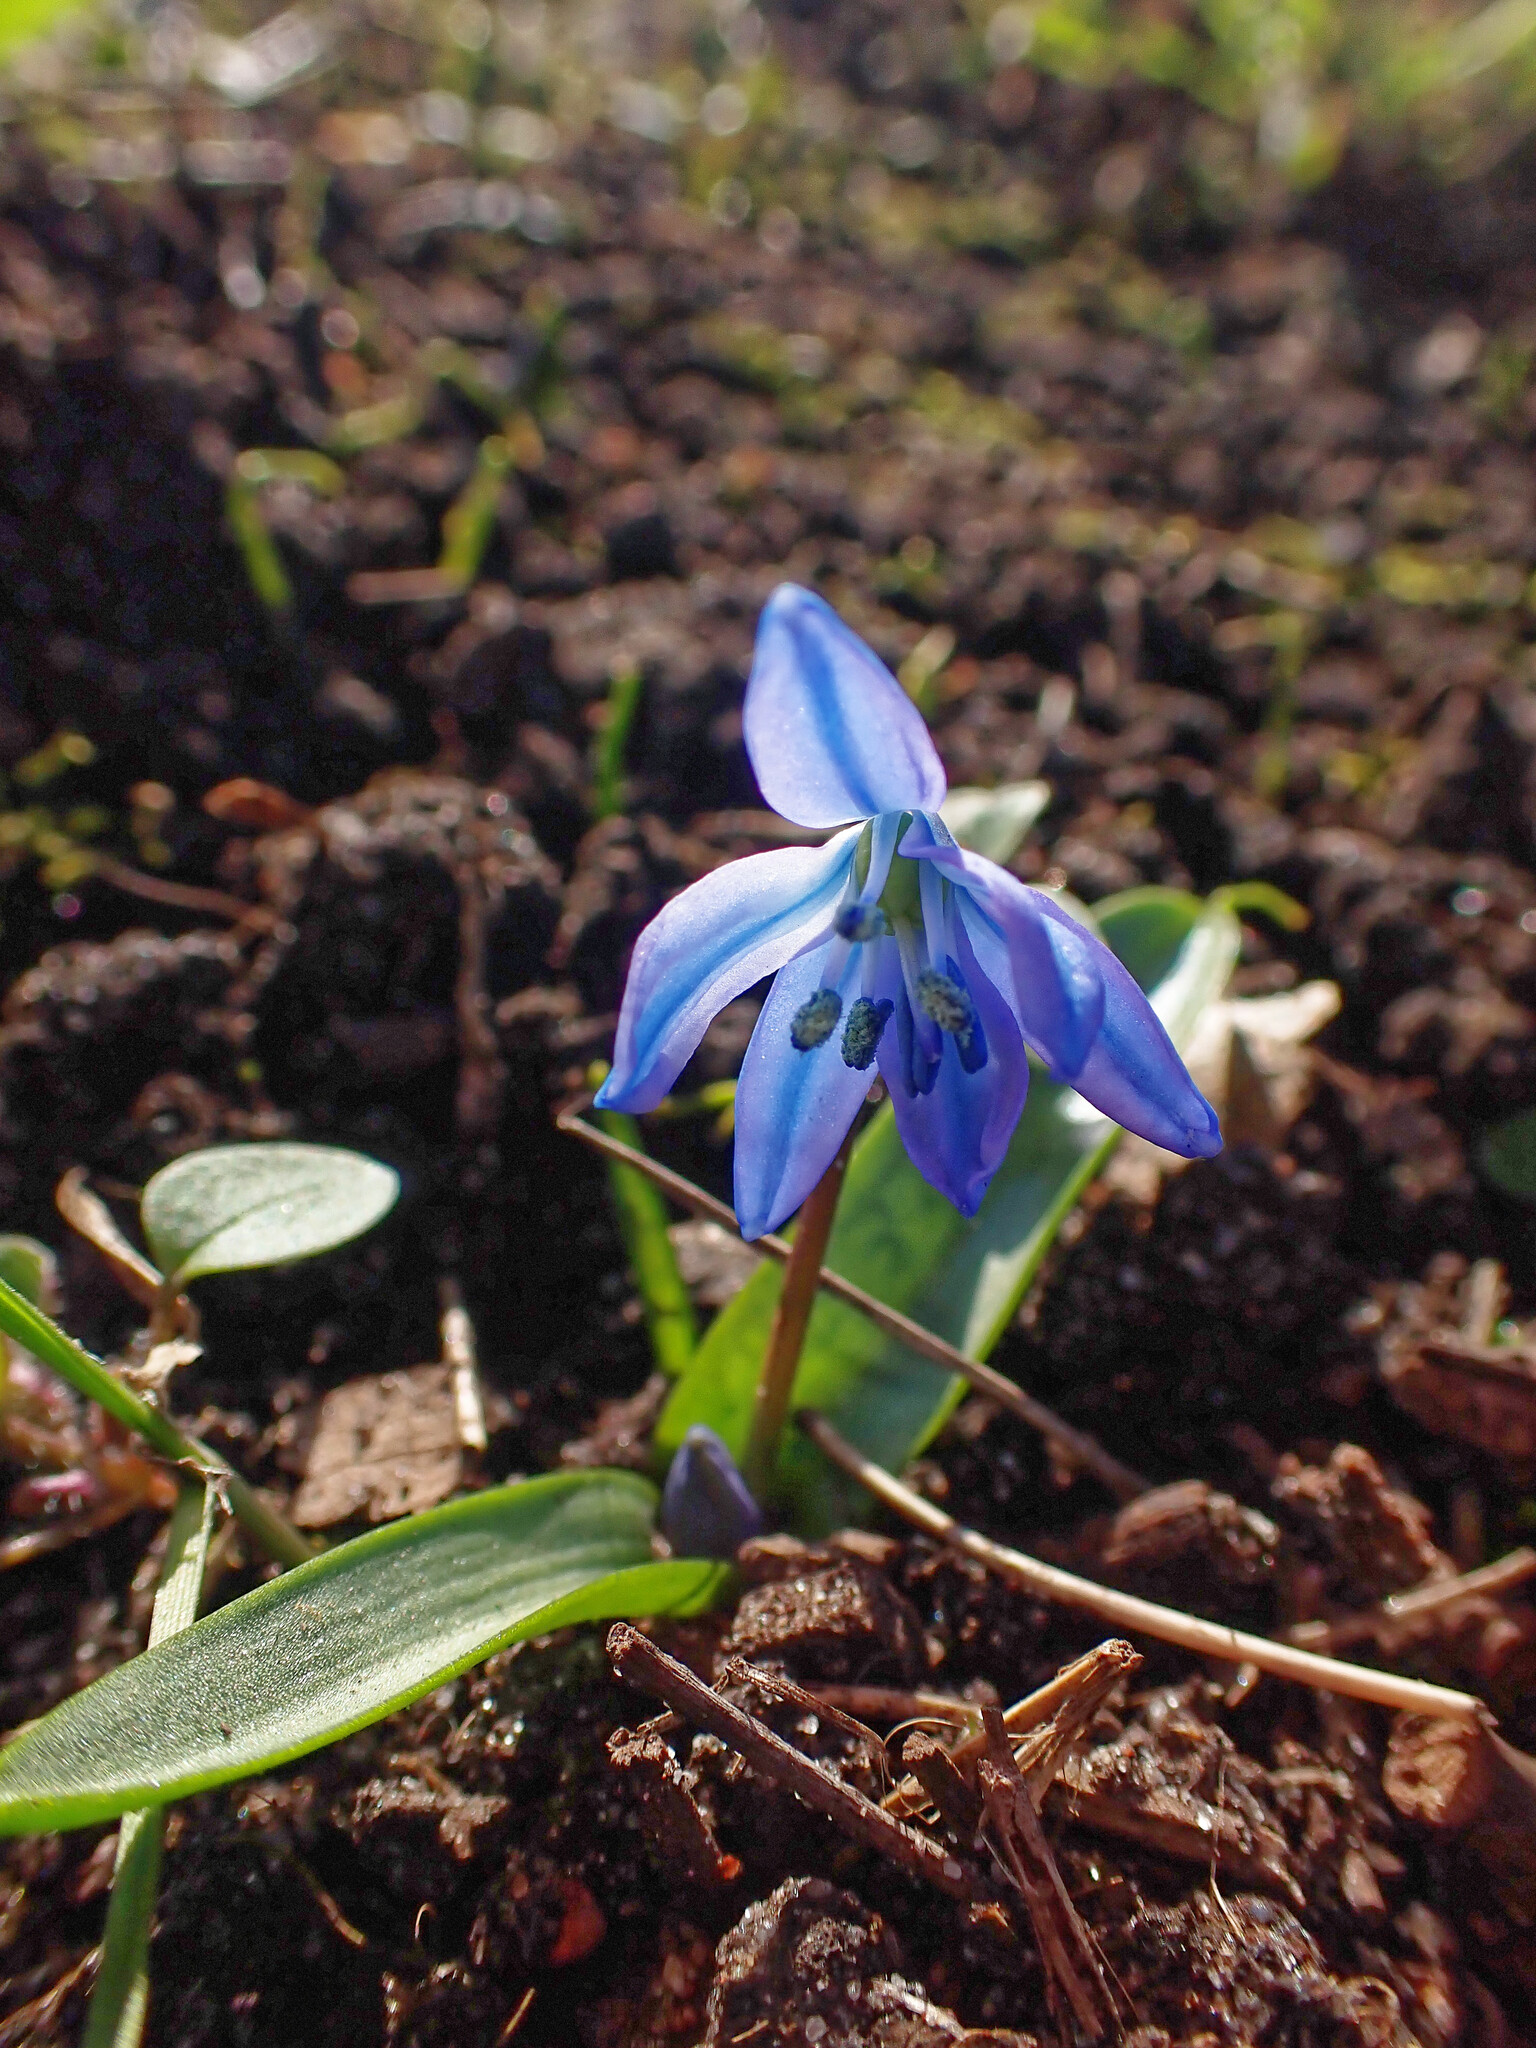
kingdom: Plantae
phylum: Tracheophyta
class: Liliopsida
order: Asparagales
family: Asparagaceae
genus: Scilla
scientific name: Scilla siberica
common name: Siberian squill
